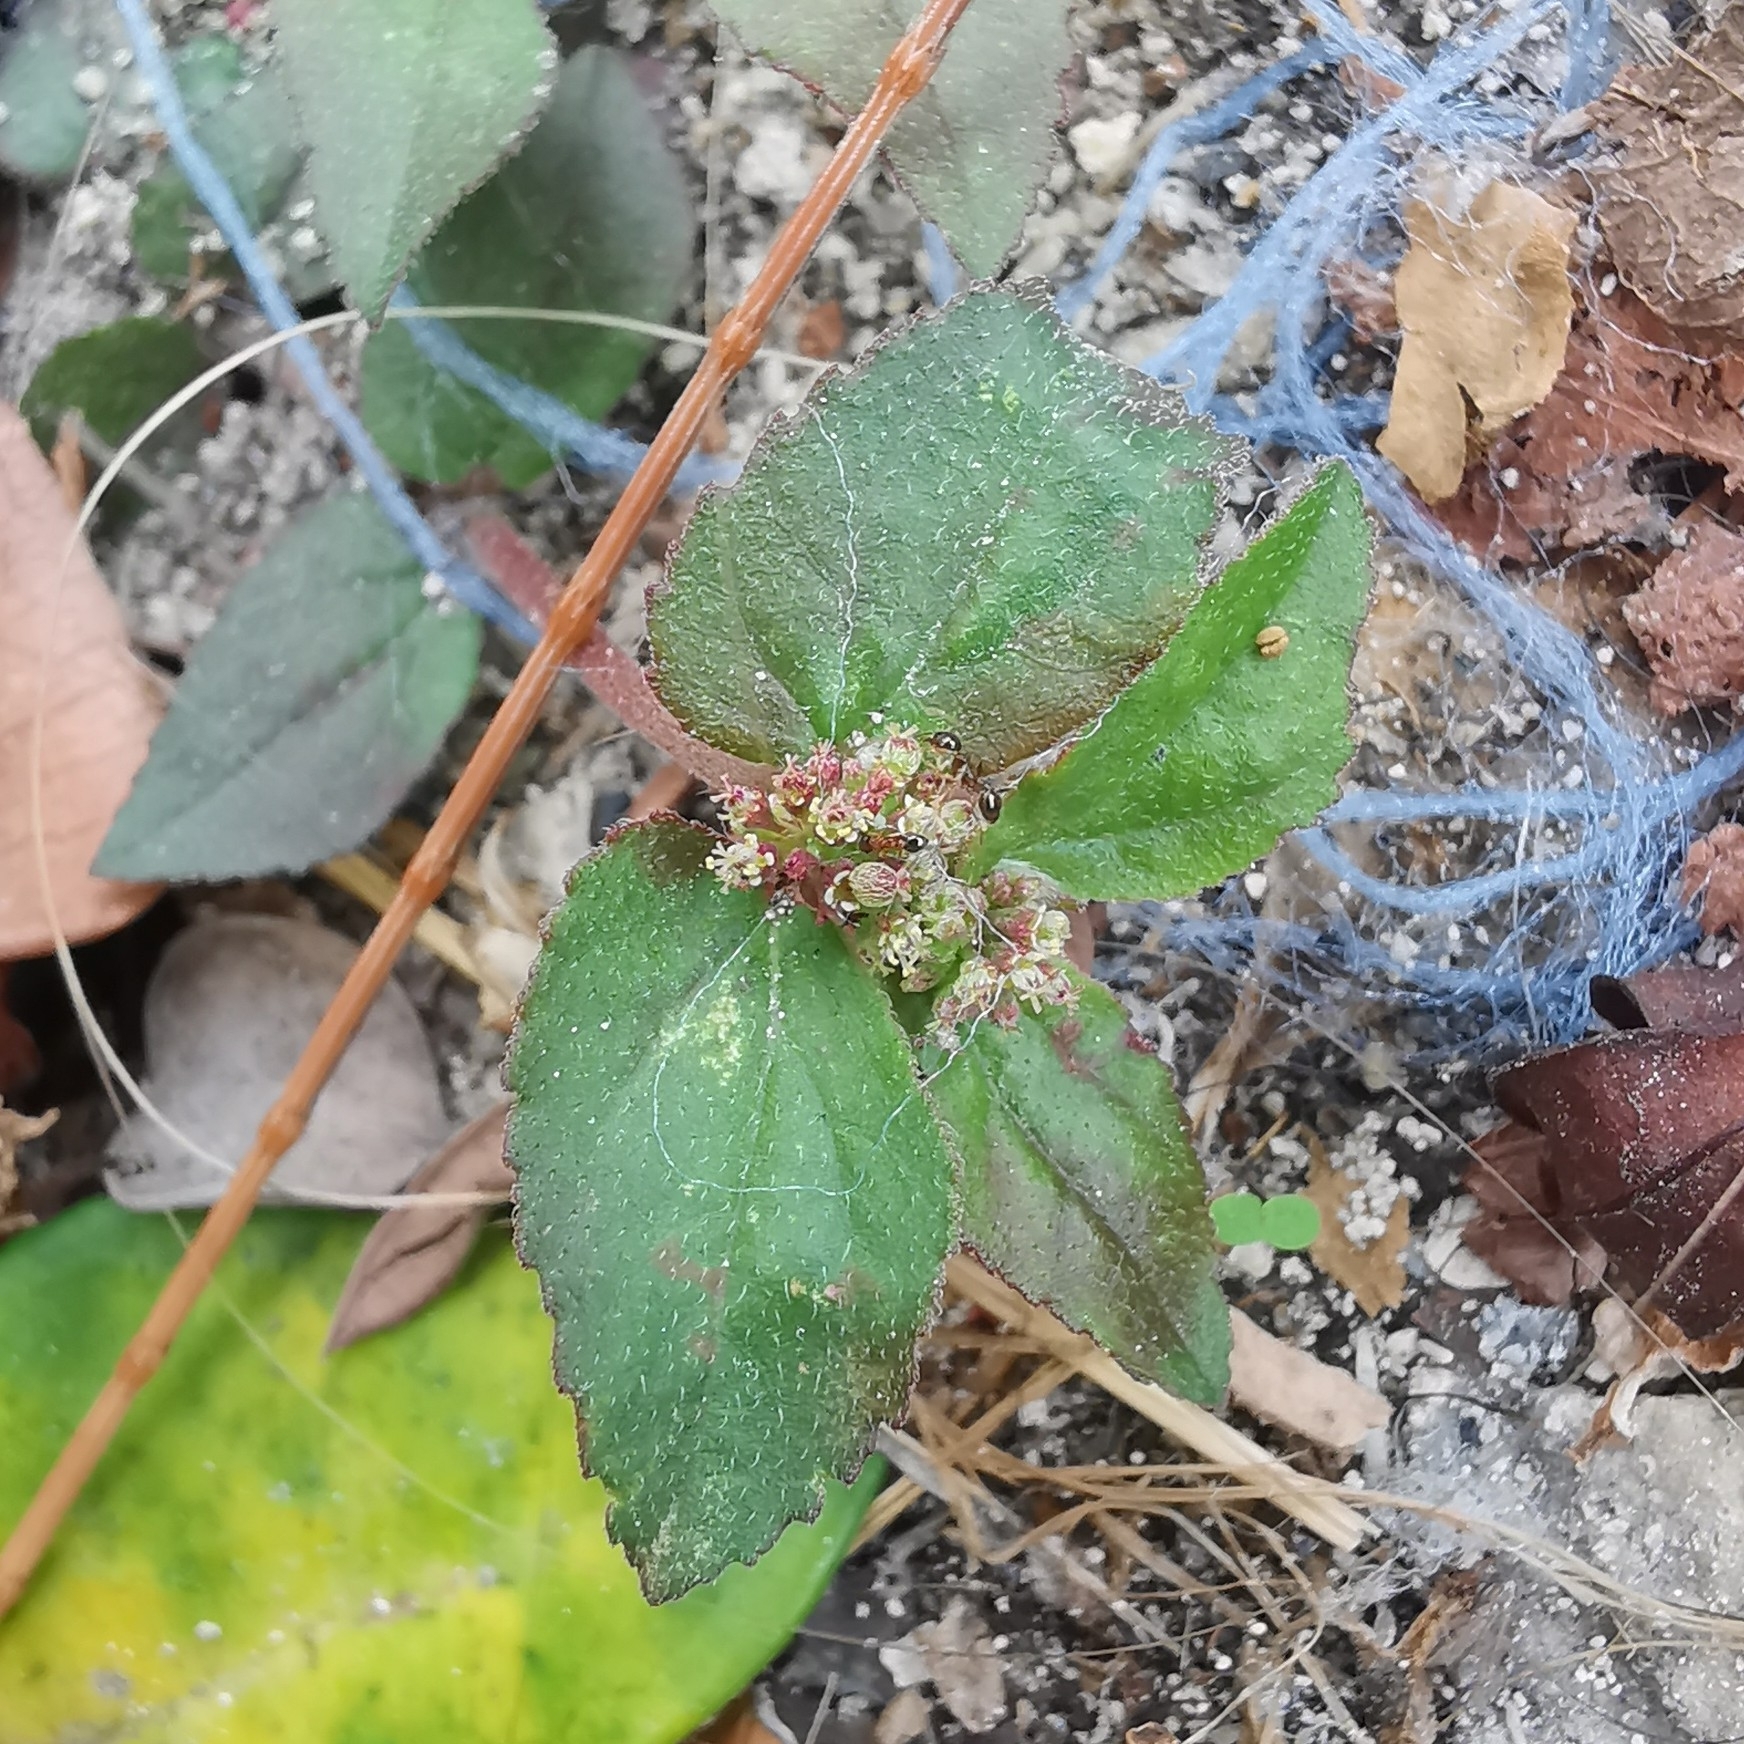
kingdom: Plantae
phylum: Tracheophyta
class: Magnoliopsida
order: Malpighiales
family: Euphorbiaceae
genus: Euphorbia
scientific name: Euphorbia hirta
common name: Pillpod sandmat
